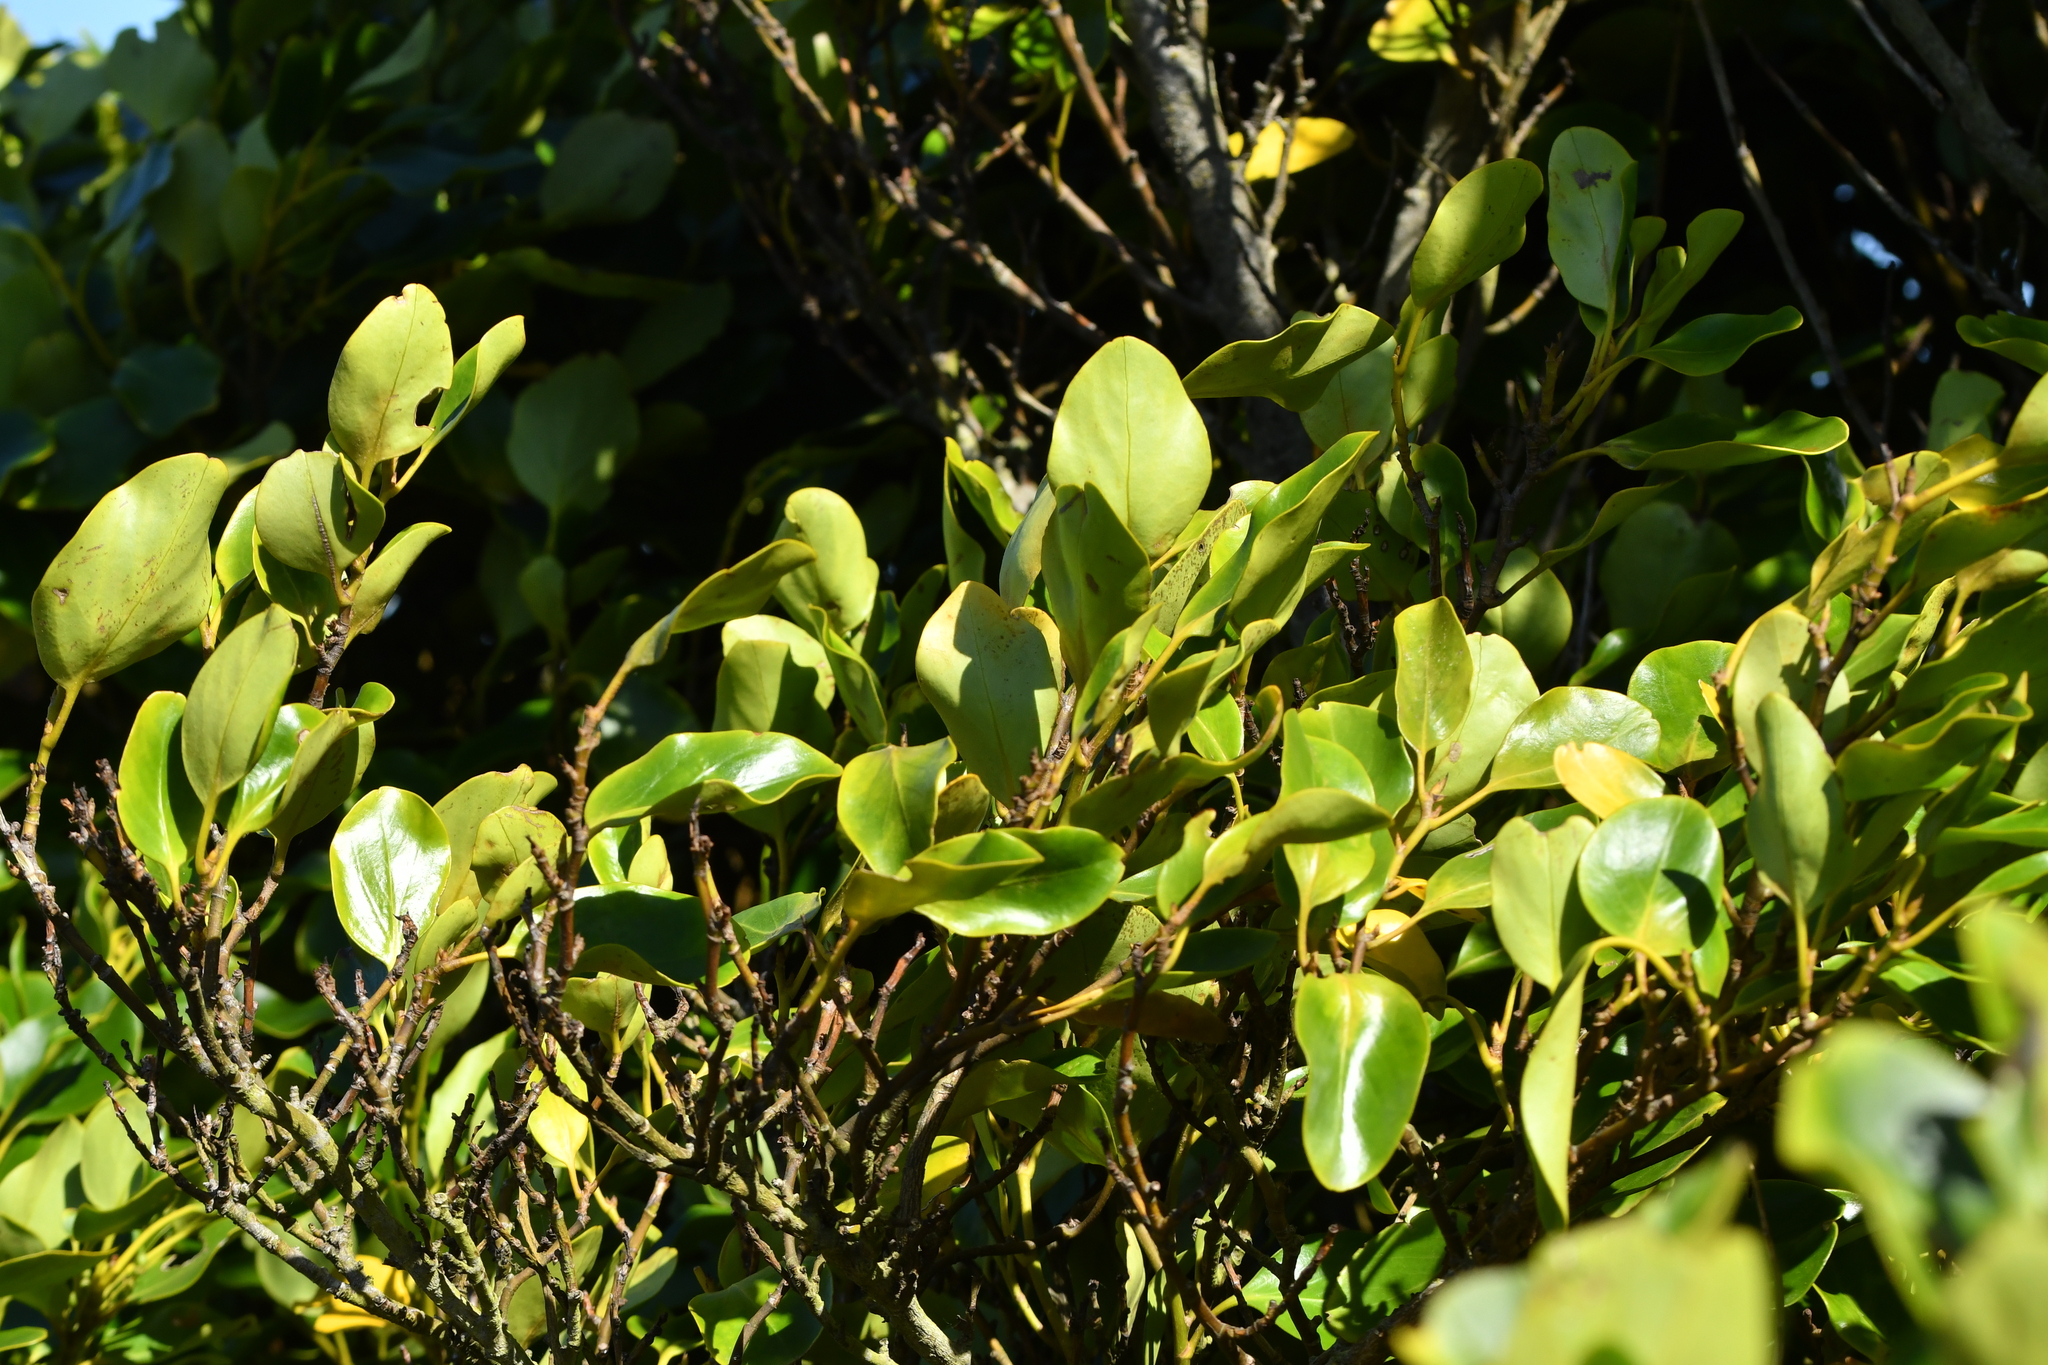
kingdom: Plantae
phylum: Tracheophyta
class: Magnoliopsida
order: Apiales
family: Griseliniaceae
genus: Griselinia
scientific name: Griselinia littoralis
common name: New zealand broadleaf
